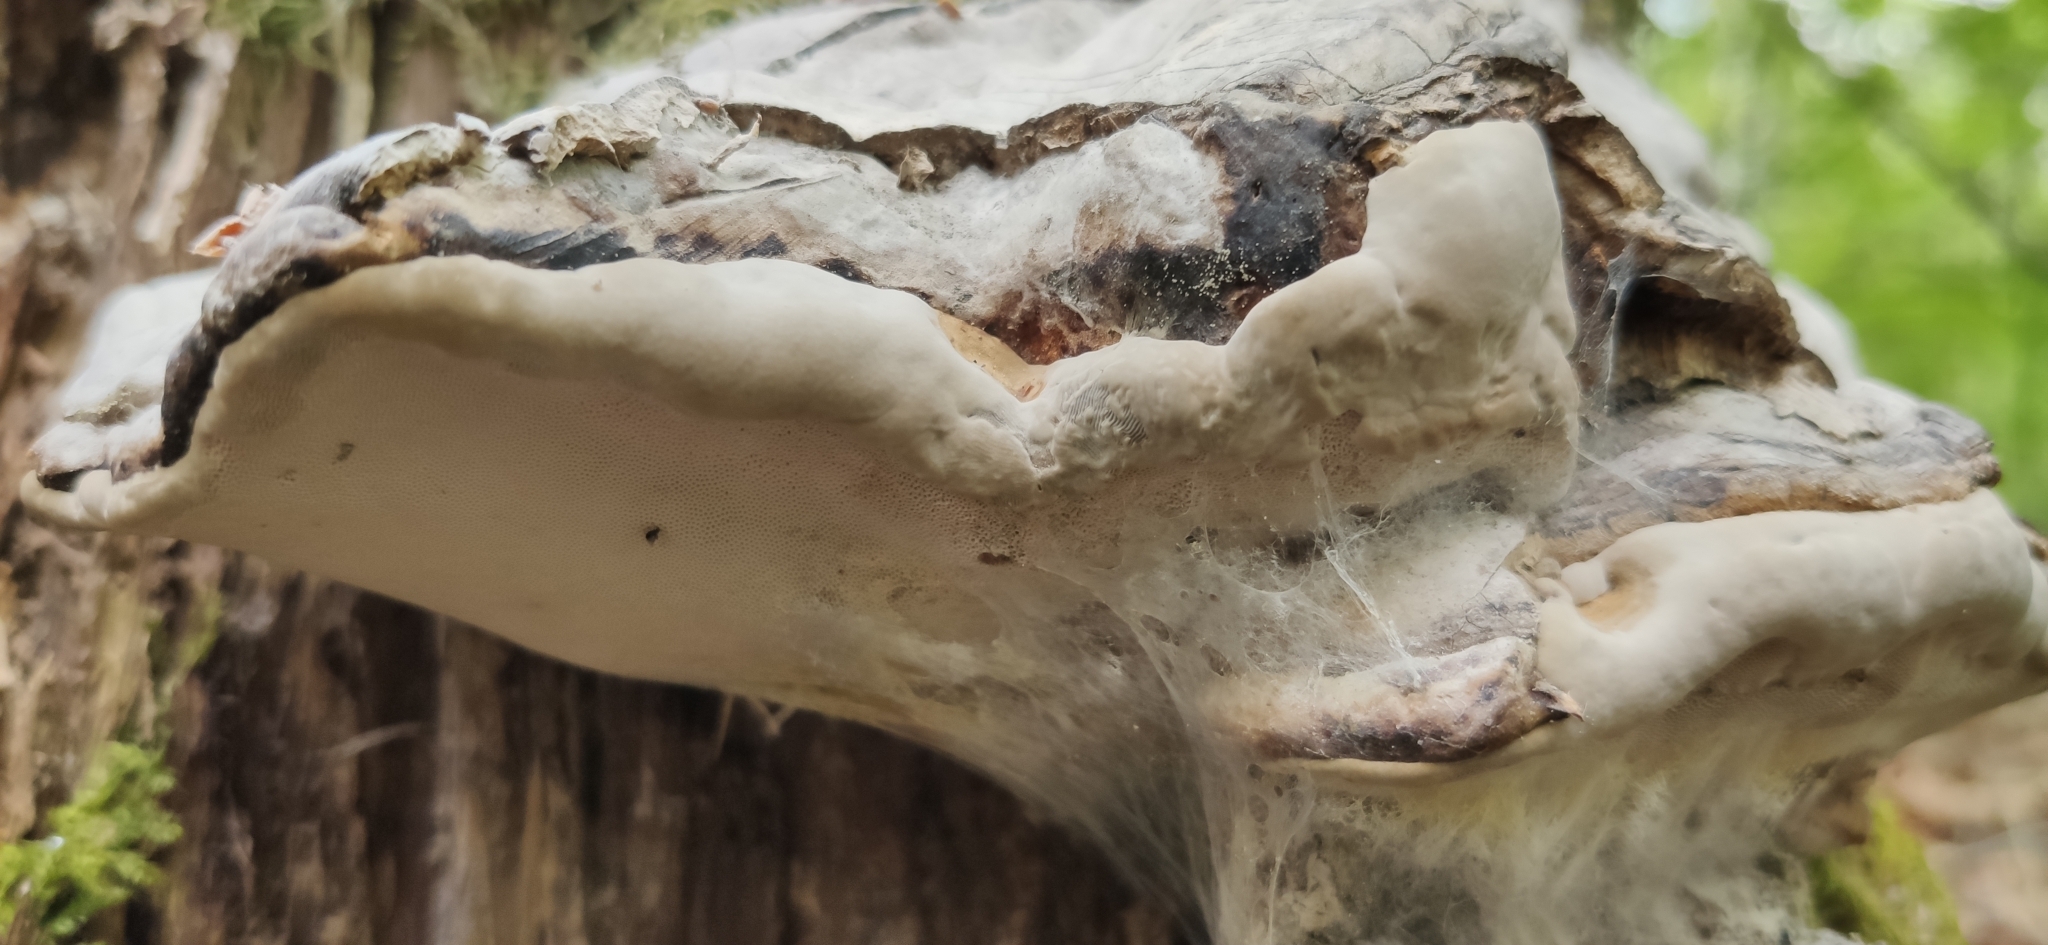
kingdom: Fungi
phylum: Basidiomycota
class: Agaricomycetes
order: Polyporales
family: Polyporaceae
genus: Fomes
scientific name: Fomes fomentarius
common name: Hoof fungus
